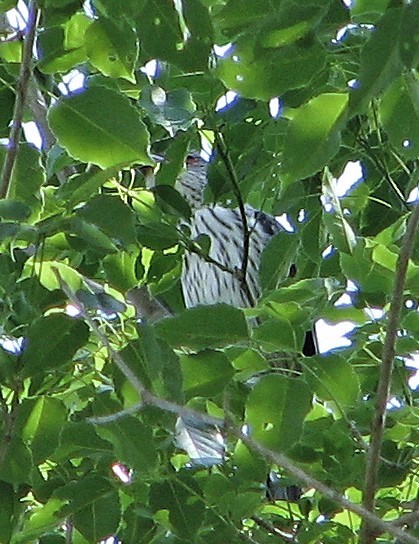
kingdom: Animalia
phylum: Chordata
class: Aves
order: Passeriformes
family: Cotingidae
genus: Tityra
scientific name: Tityra cayana
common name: Black-tailed tityra
